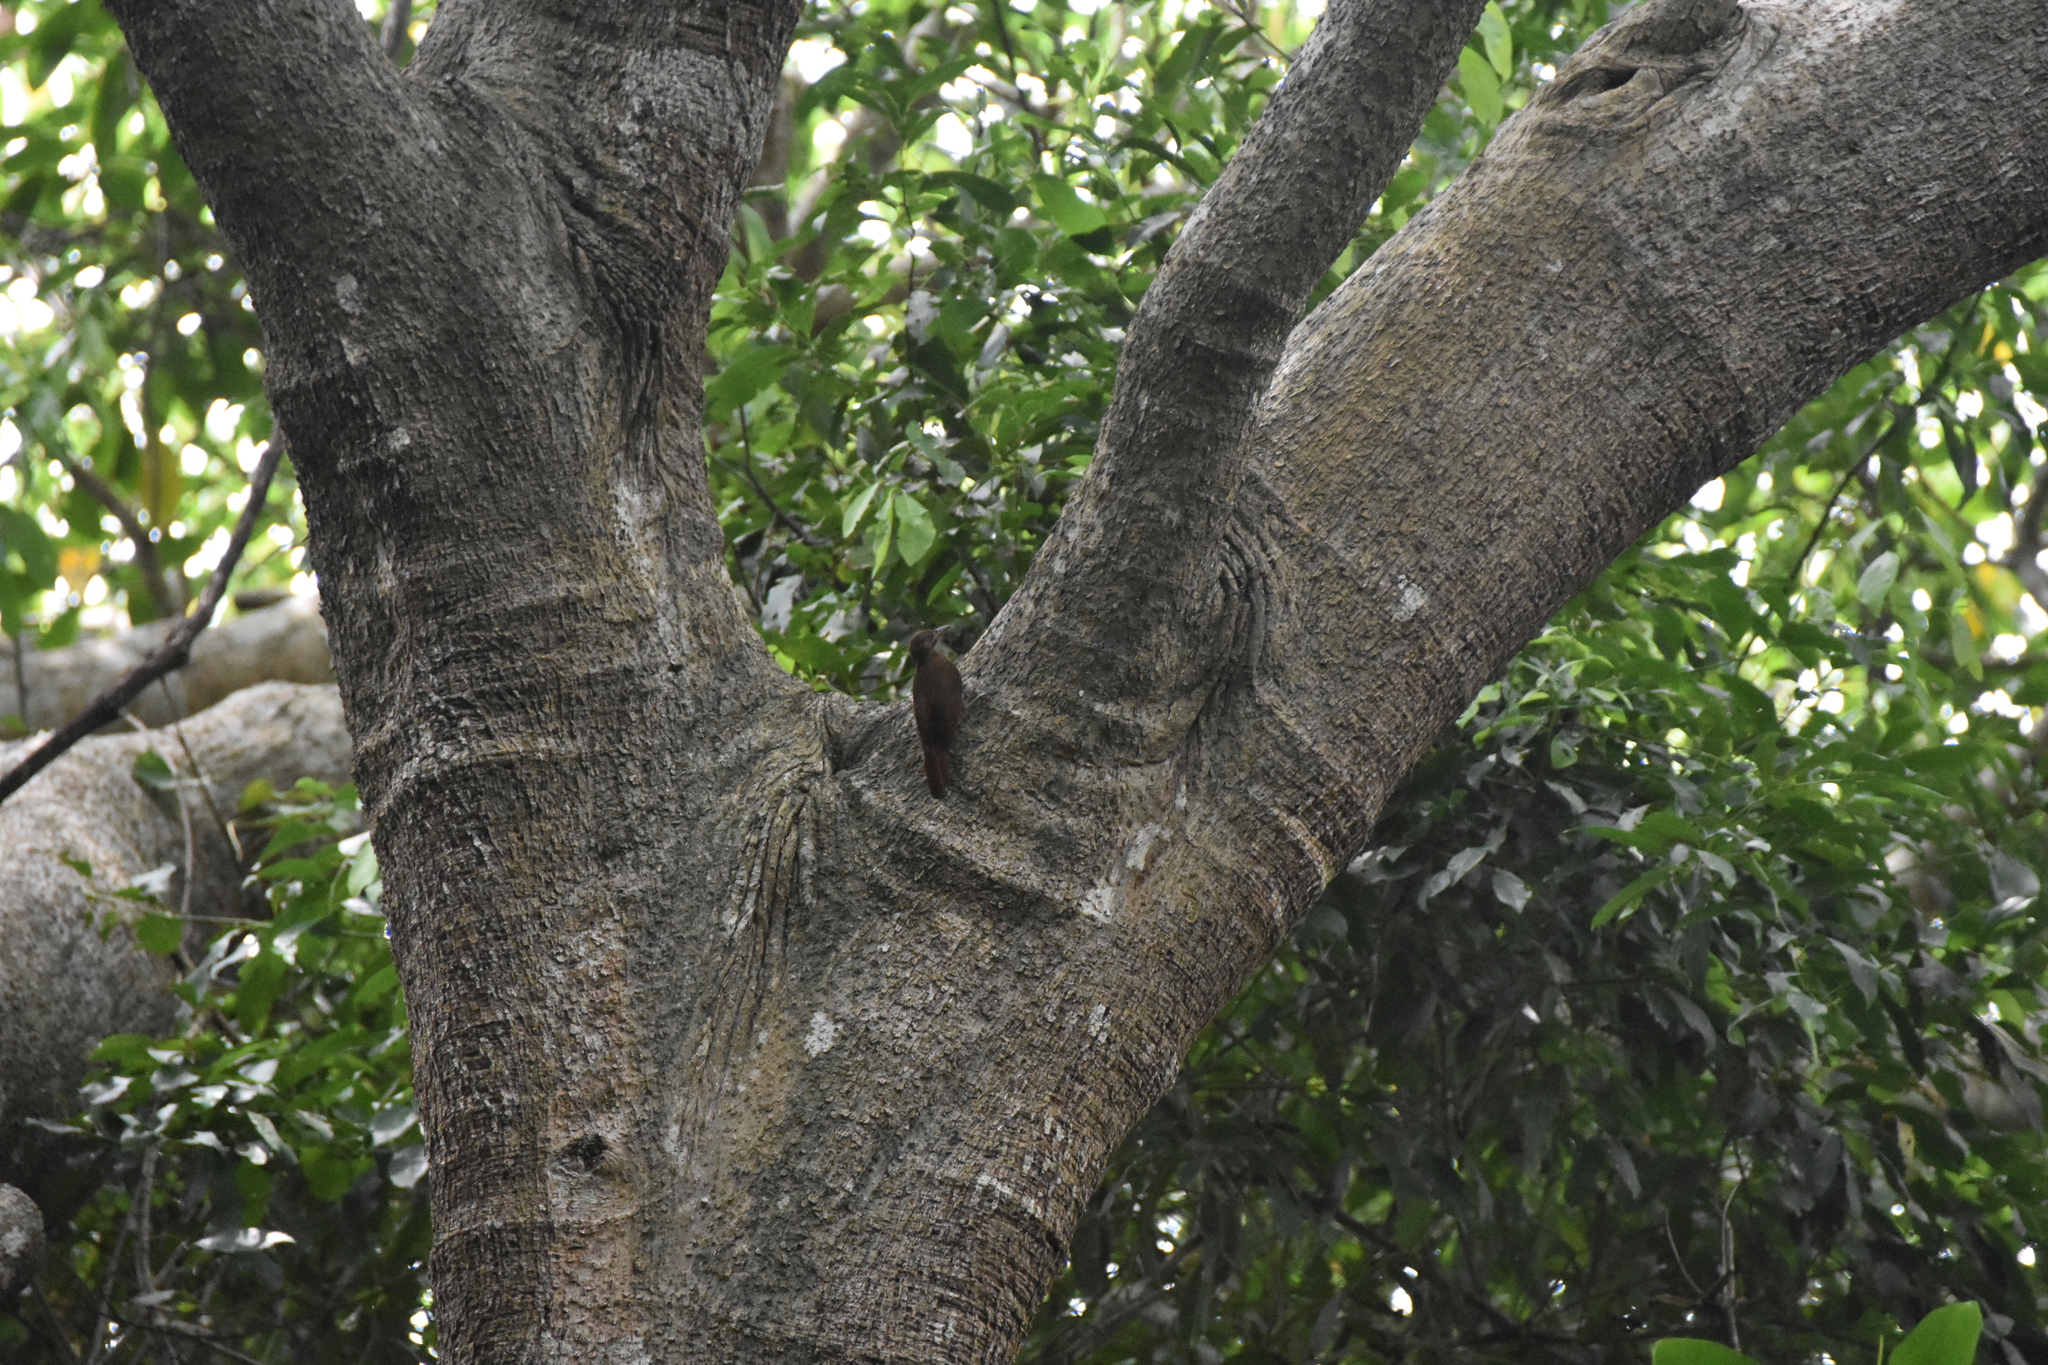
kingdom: Animalia
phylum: Chordata
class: Aves
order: Passeriformes
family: Furnariidae
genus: Dendrocincla
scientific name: Dendrocincla fuliginosa
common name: Plain-brown woodcreeper
